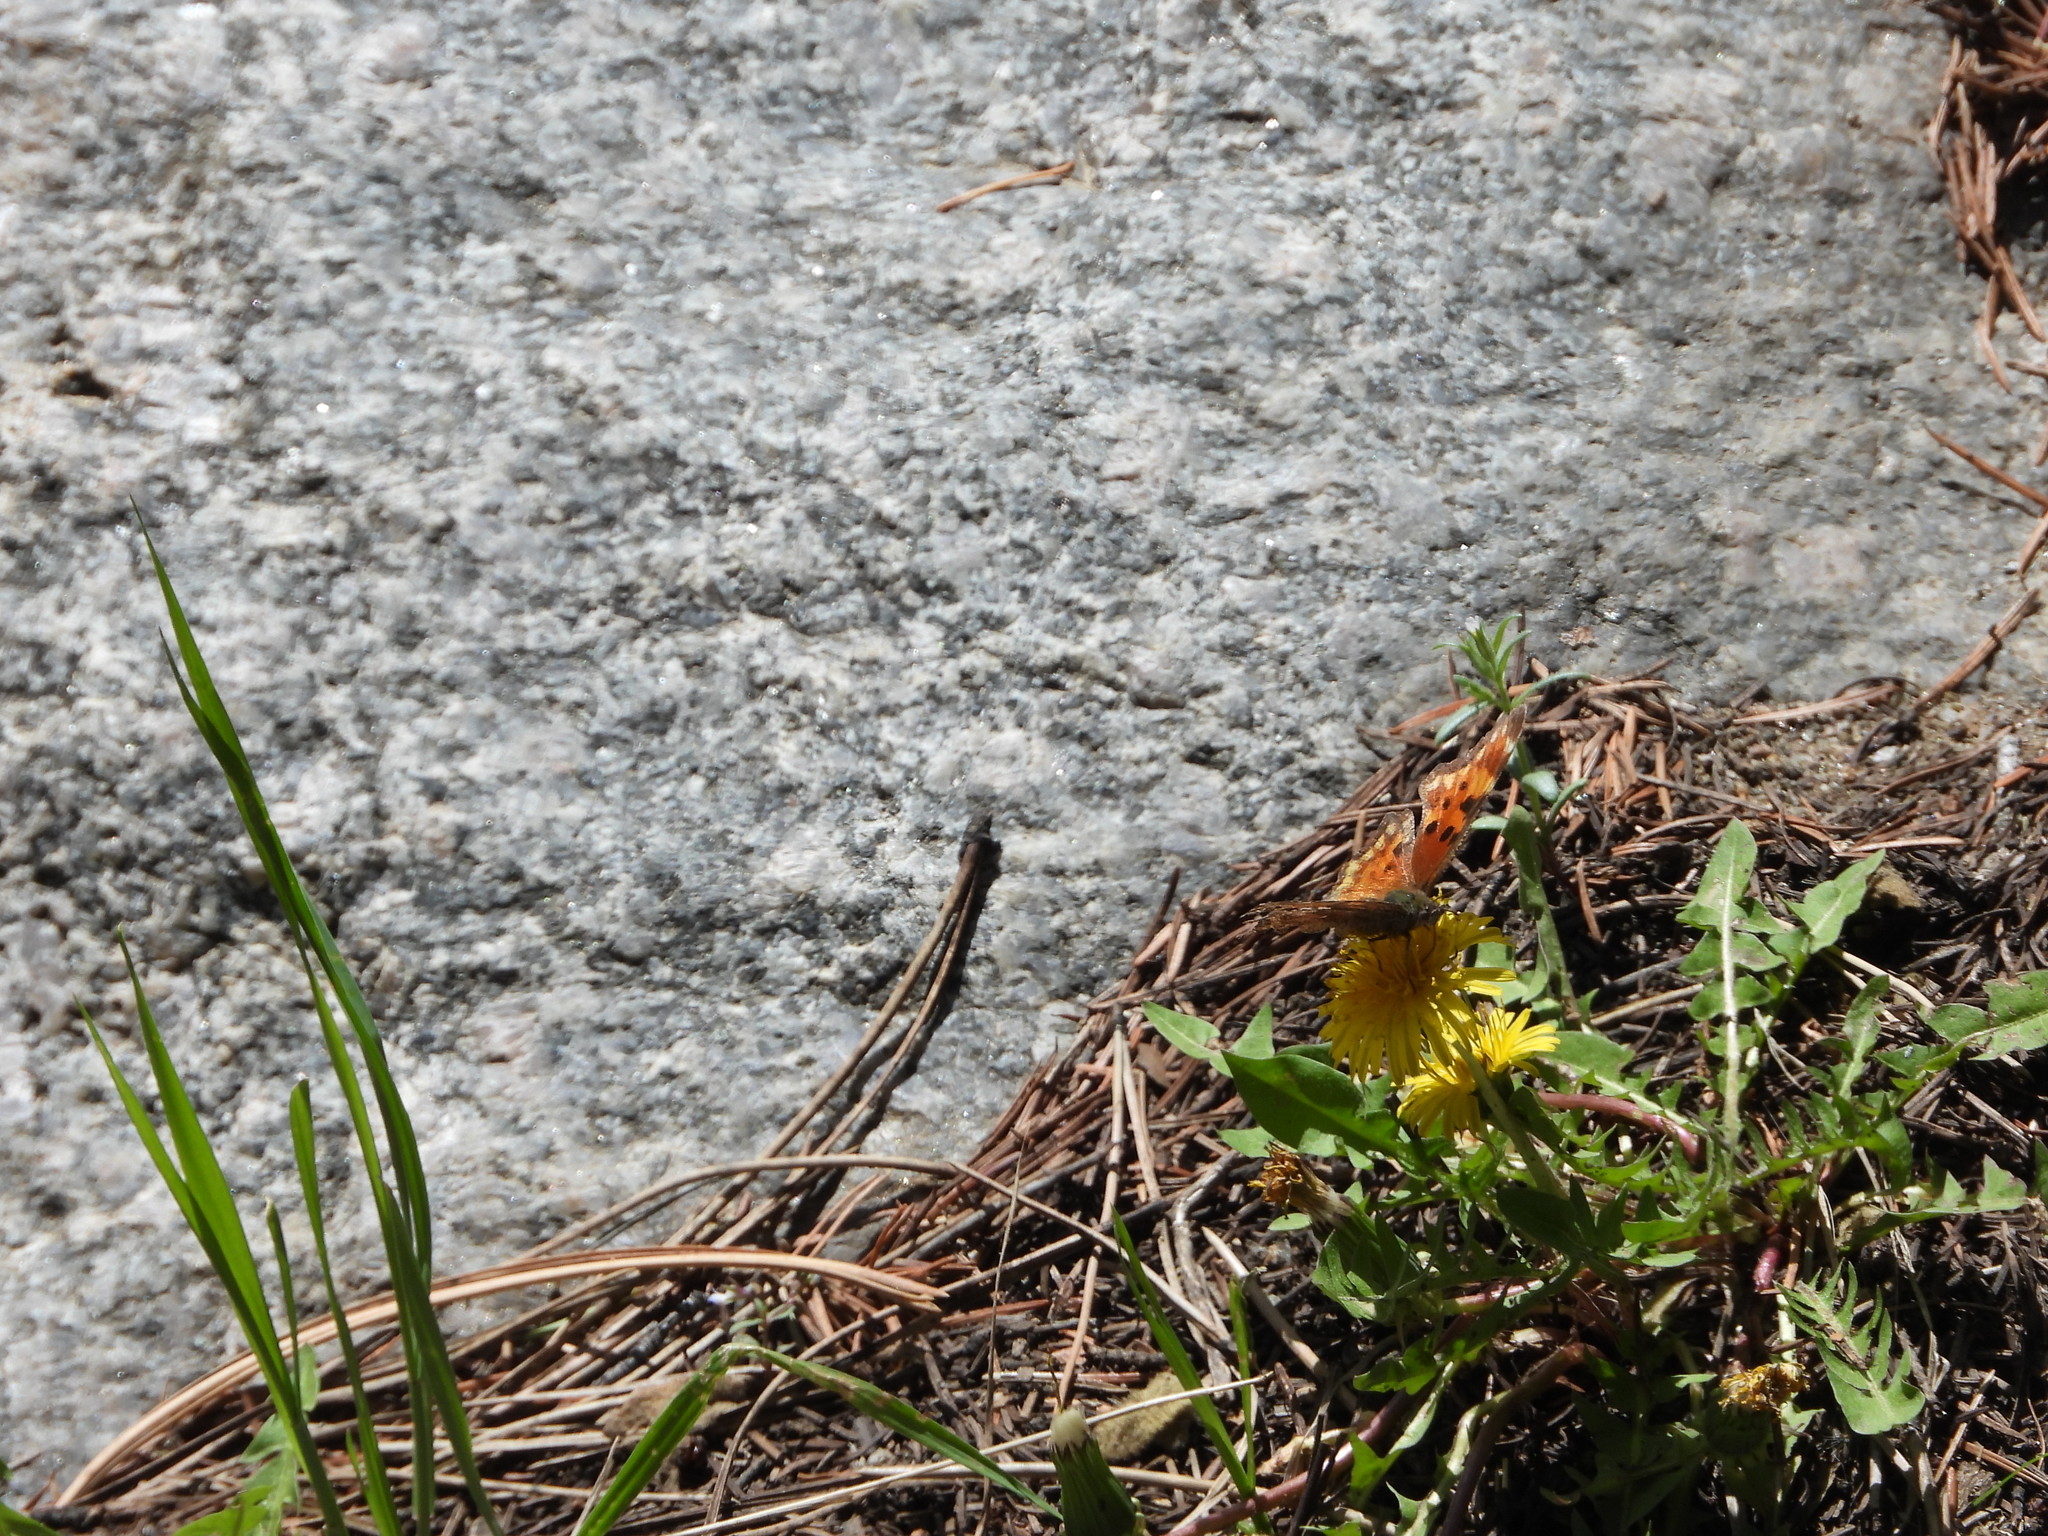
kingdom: Animalia
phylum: Arthropoda
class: Insecta
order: Lepidoptera
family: Nymphalidae
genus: Polygonia
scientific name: Polygonia gracilis
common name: Hoary comma
